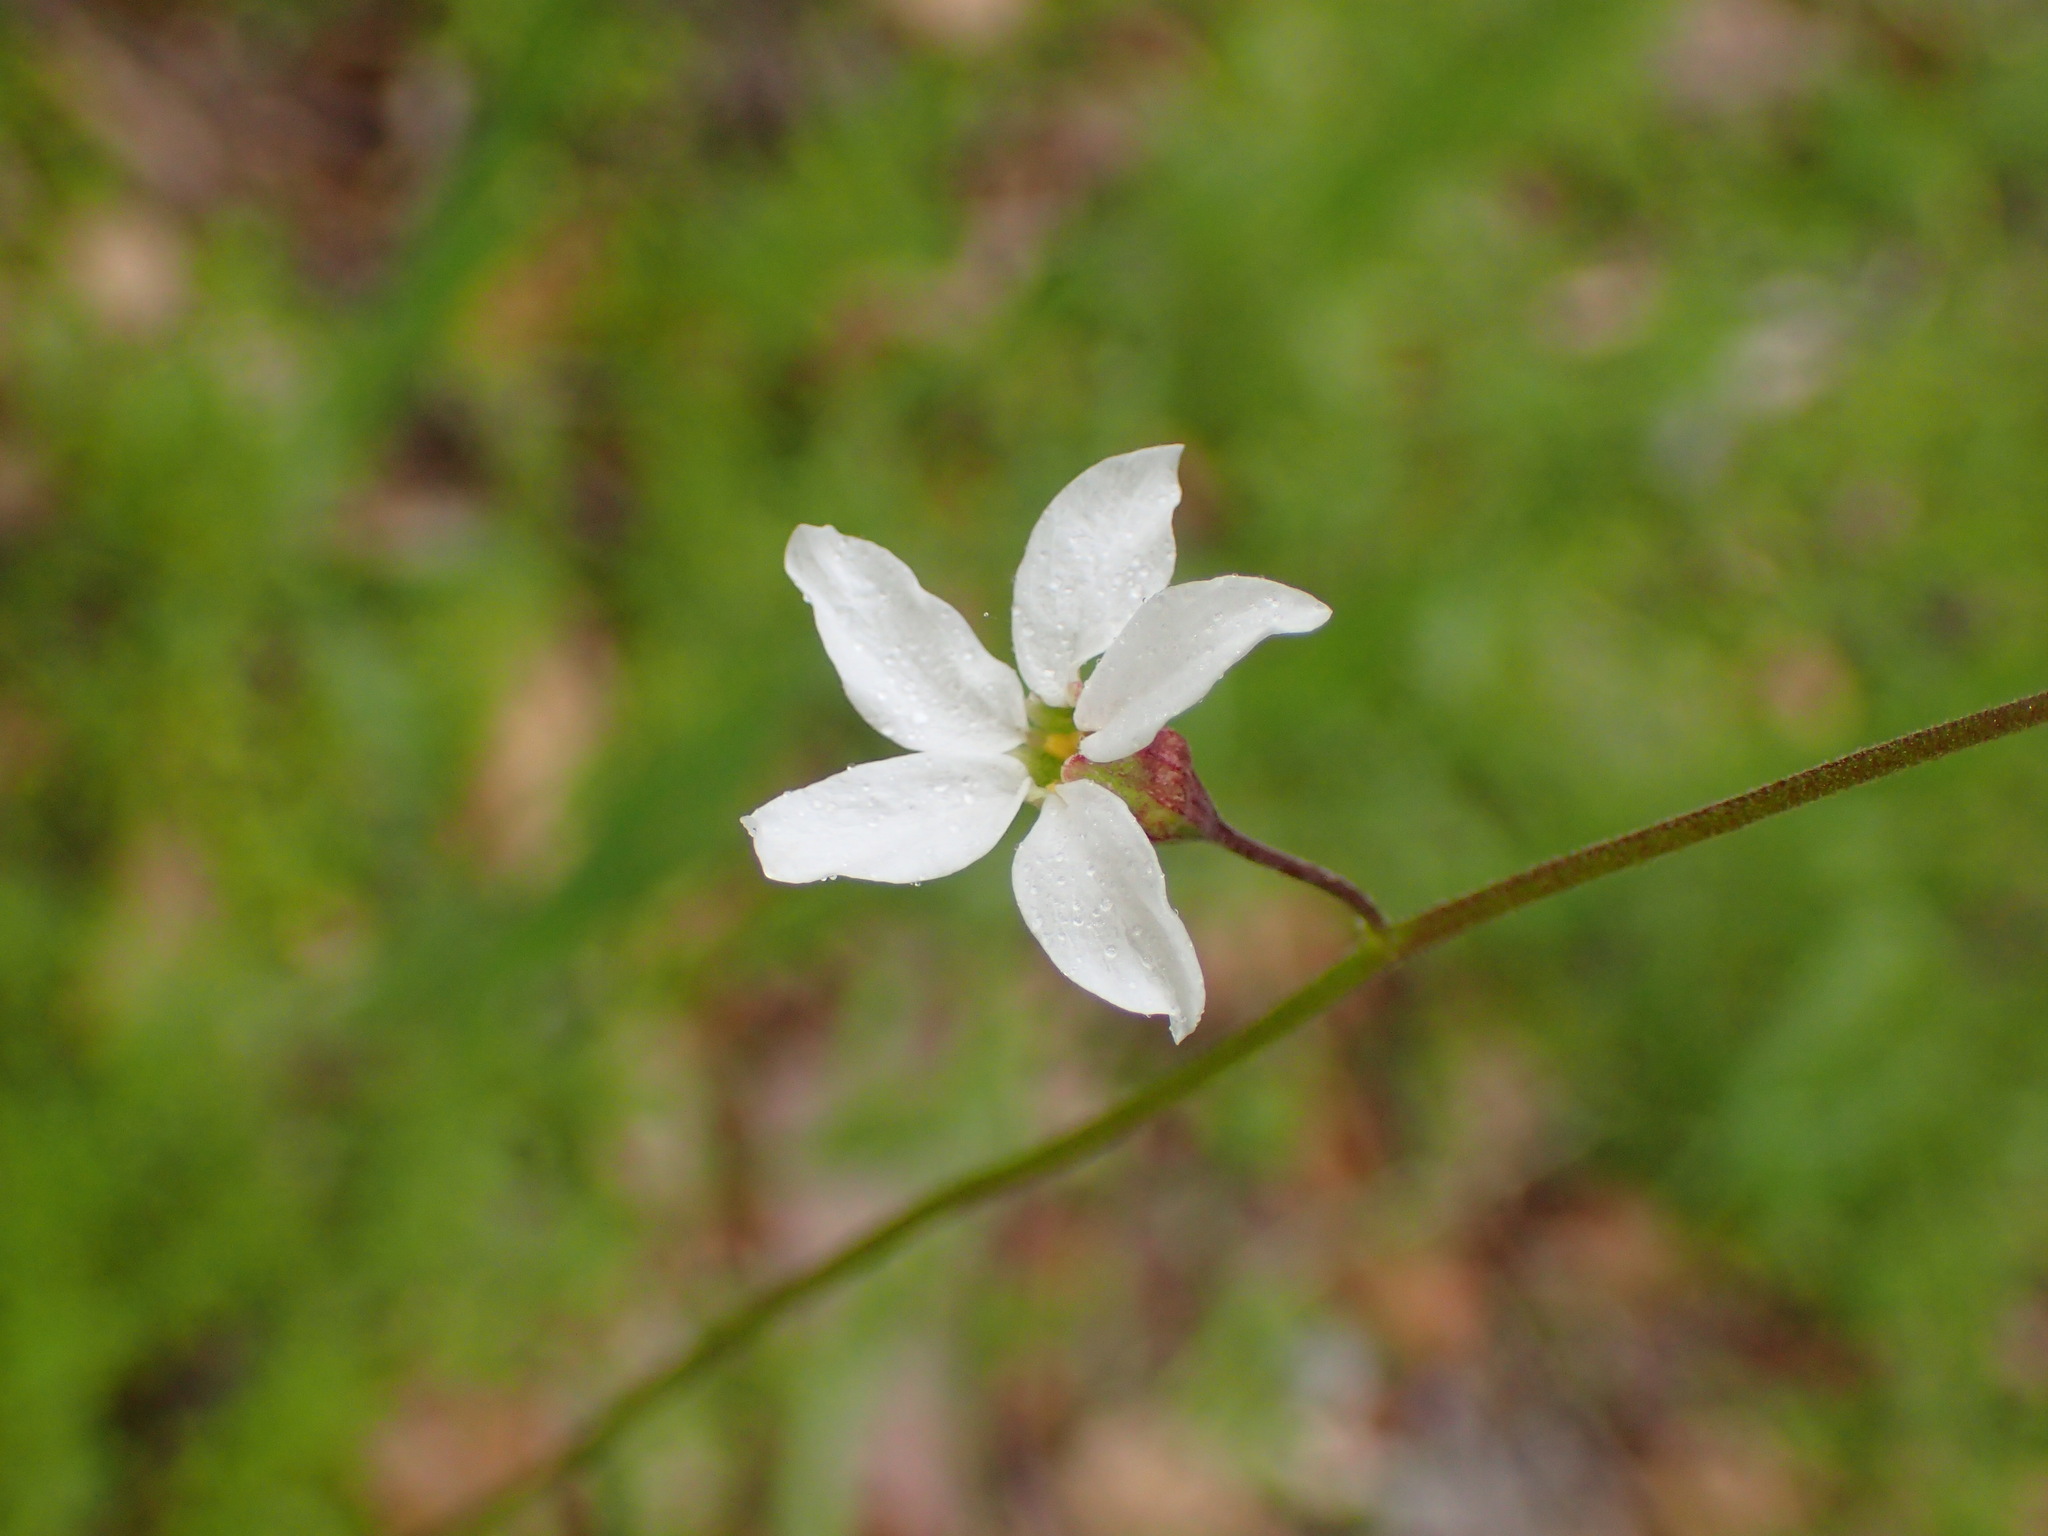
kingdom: Plantae
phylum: Tracheophyta
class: Magnoliopsida
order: Saxifragales
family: Saxifragaceae
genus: Lithophragma
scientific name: Lithophragma cymbalaria
